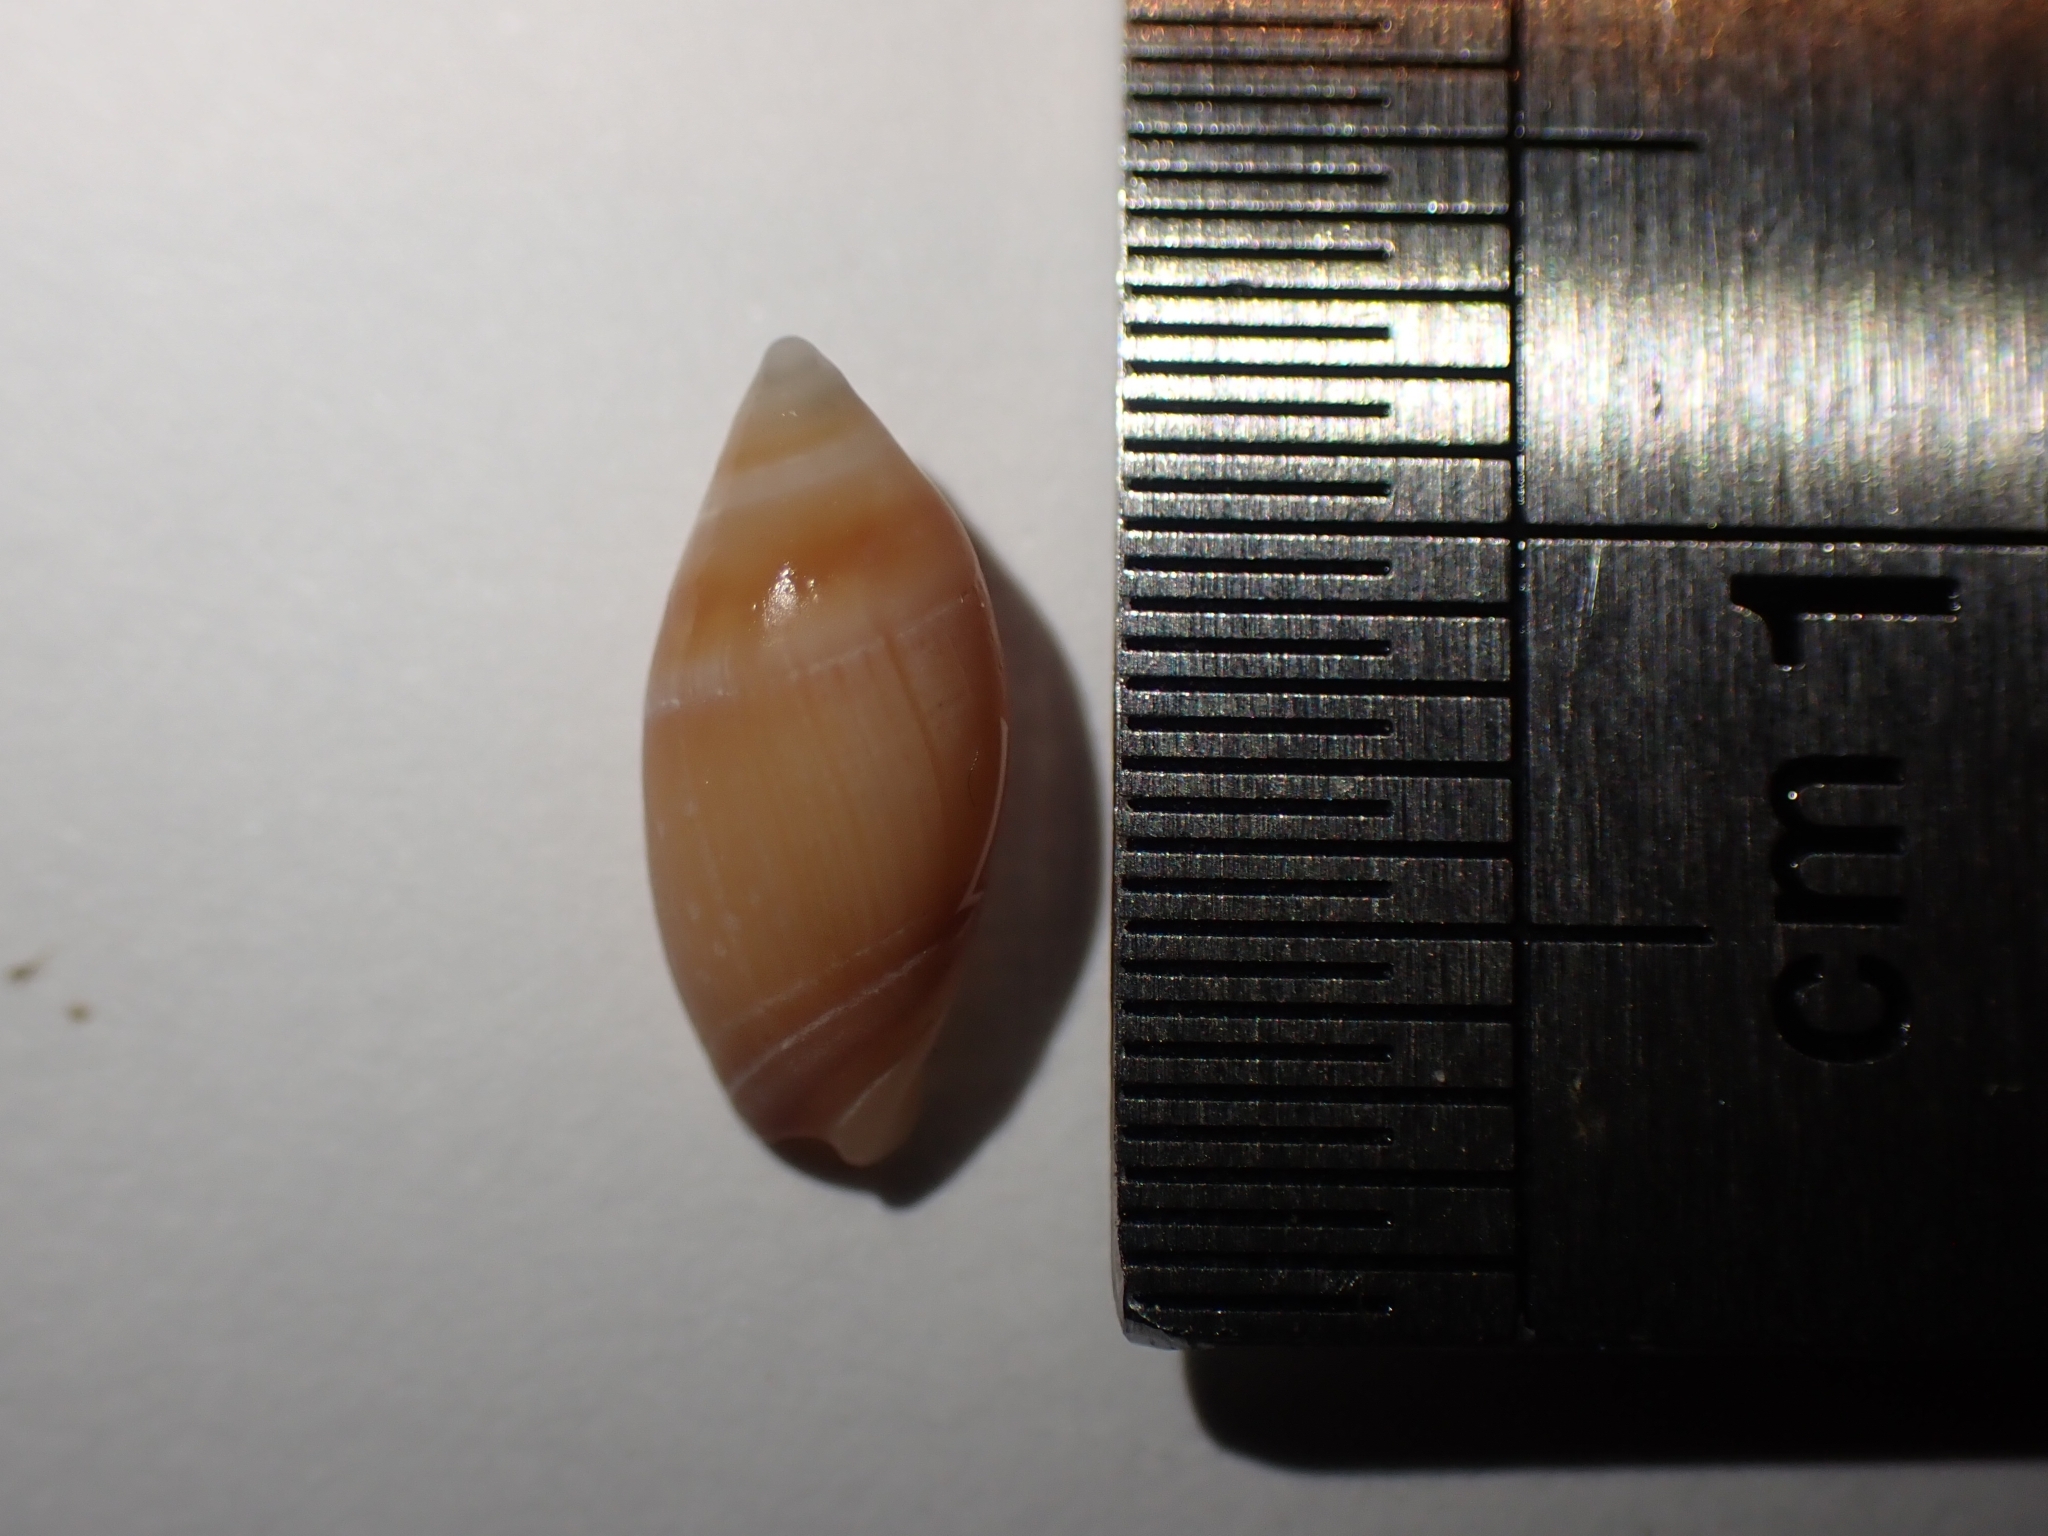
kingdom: Animalia
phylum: Mollusca
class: Gastropoda
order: Neogastropoda
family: Ancillariidae
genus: Amalda
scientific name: Amalda australis
